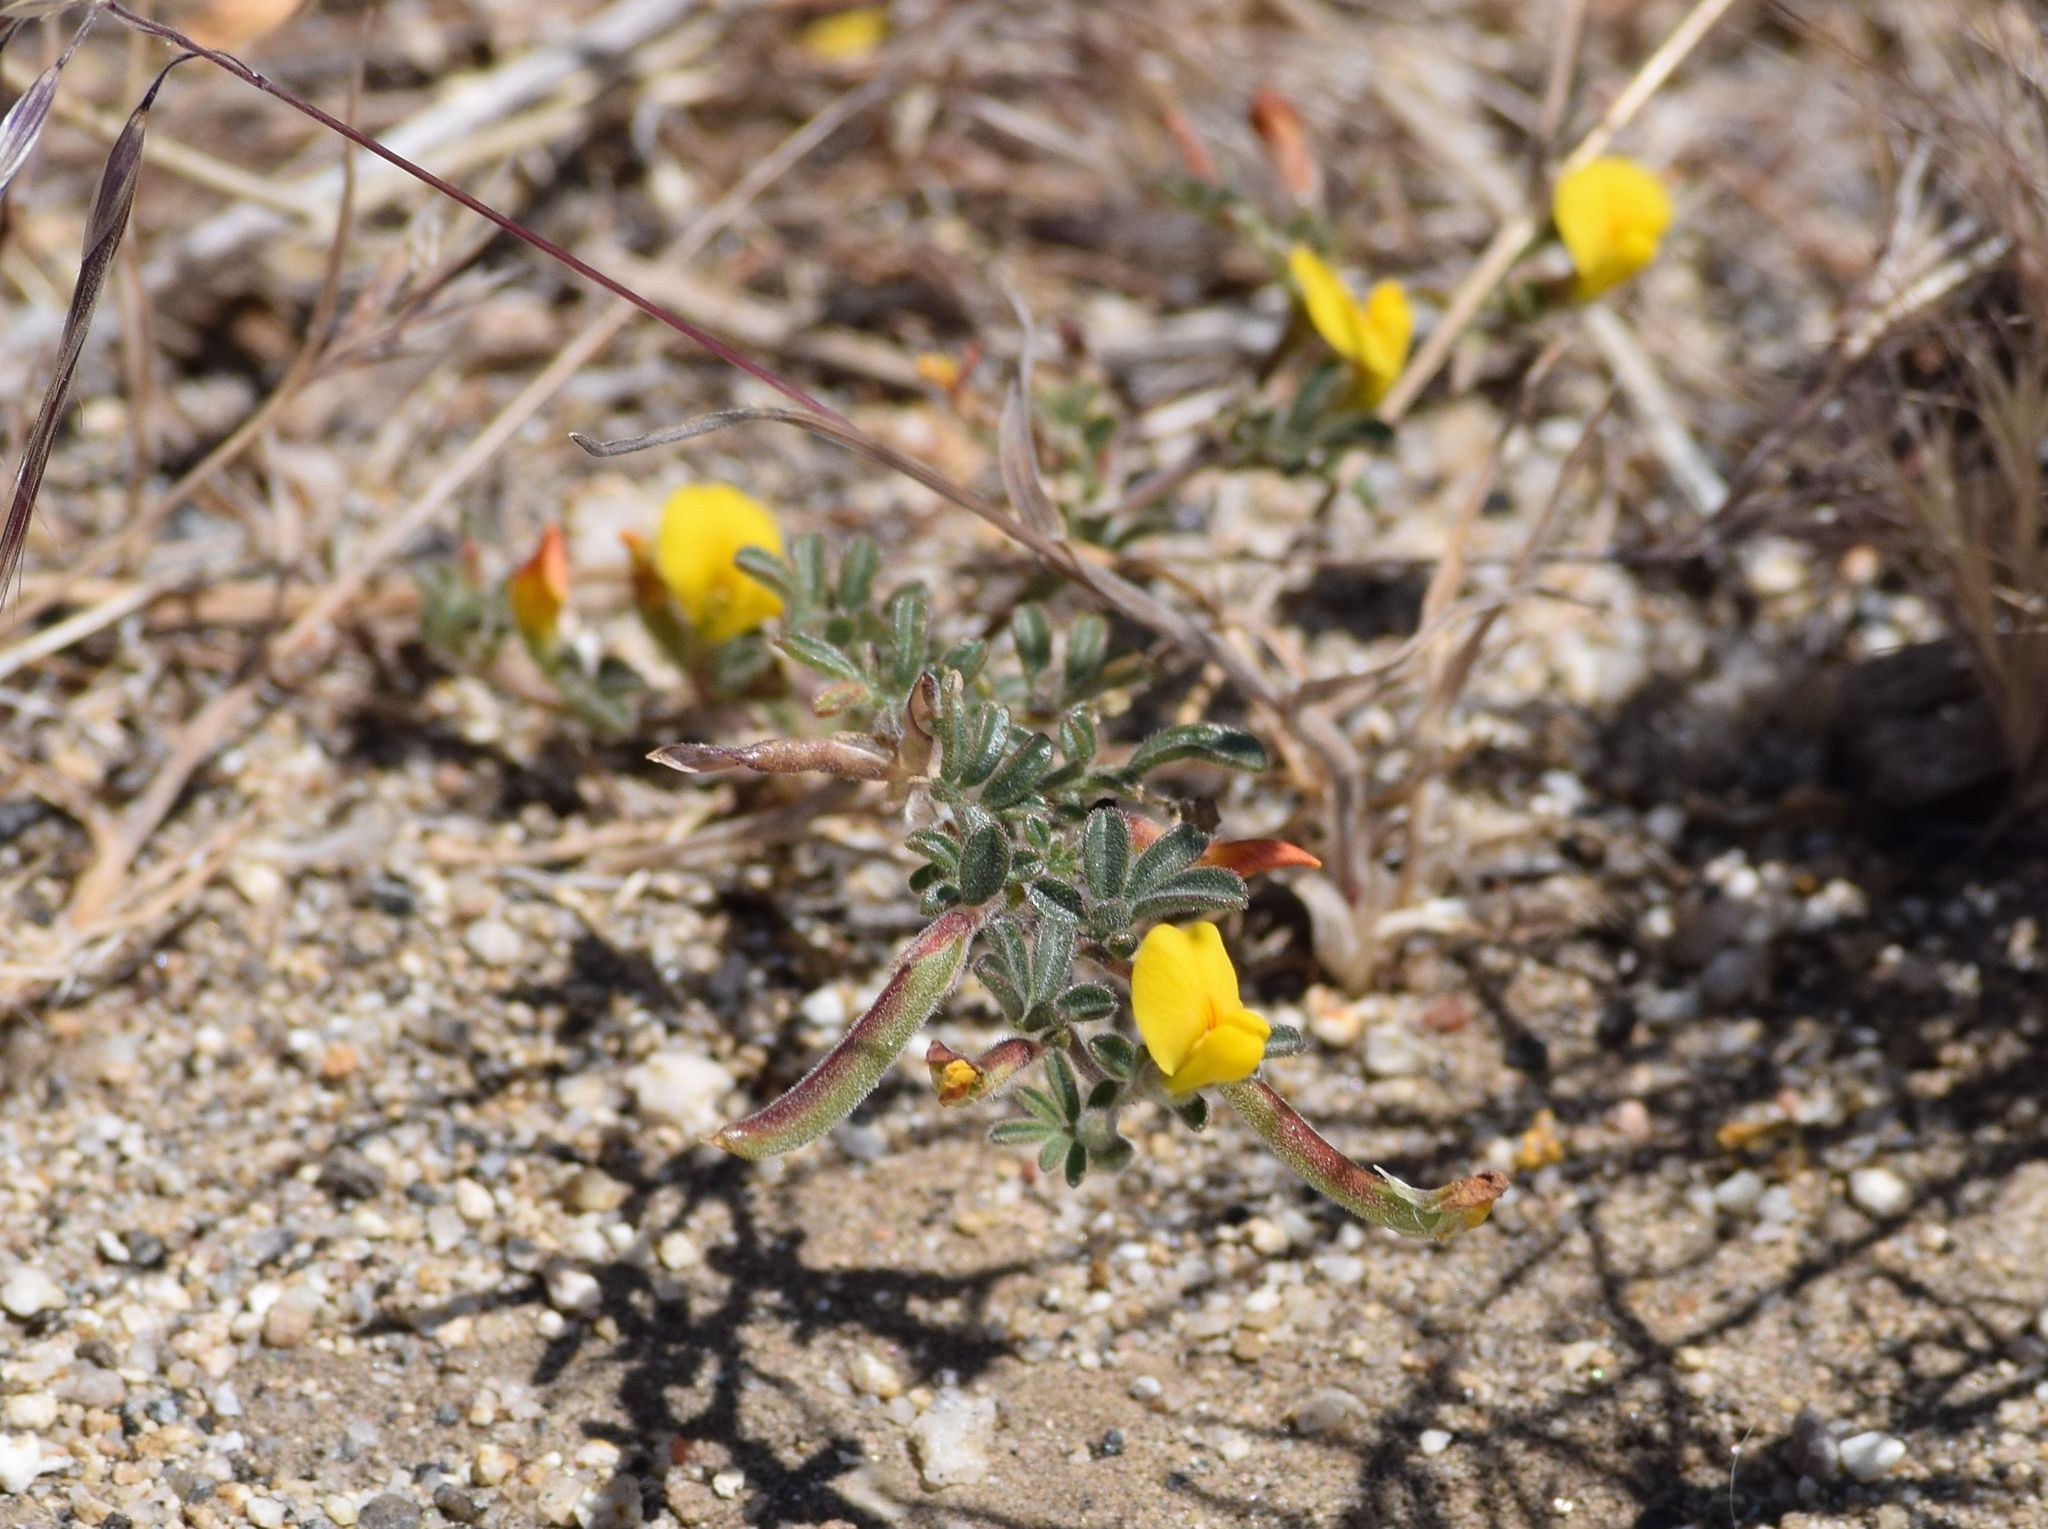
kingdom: Plantae
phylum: Tracheophyta
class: Magnoliopsida
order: Fabales
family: Fabaceae
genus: Acmispon
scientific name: Acmispon strigosus
